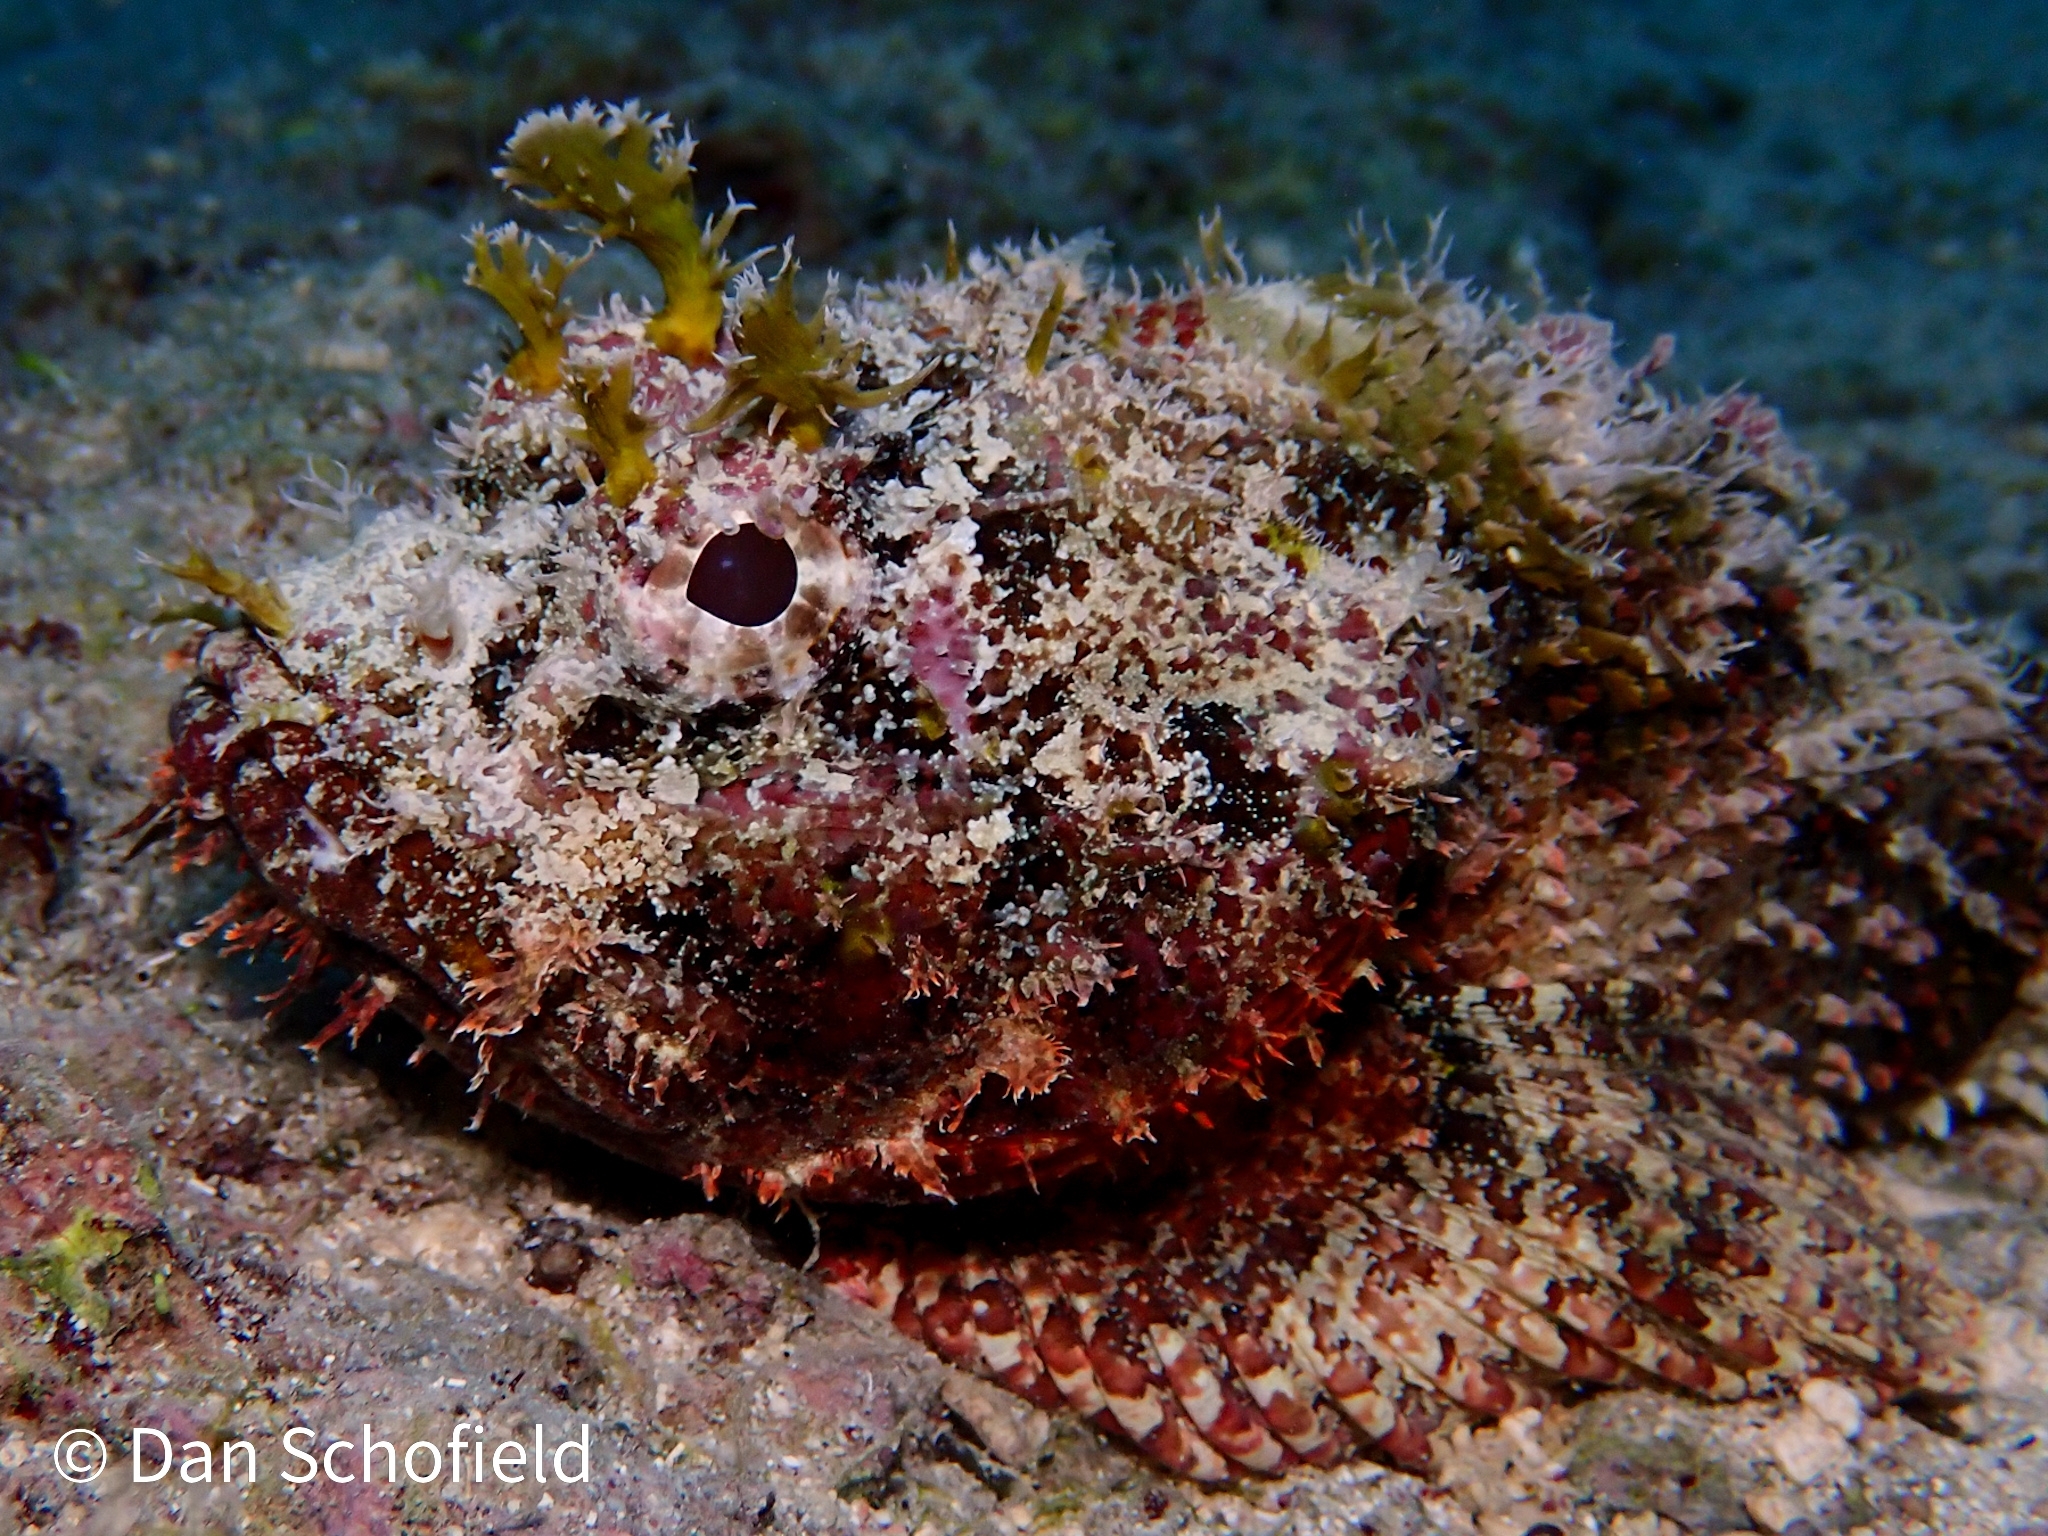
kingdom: Animalia
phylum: Chordata
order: Scorpaeniformes
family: Scorpaenidae
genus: Scorpaena
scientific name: Scorpaena plumieri
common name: Spotted scorpionfish
